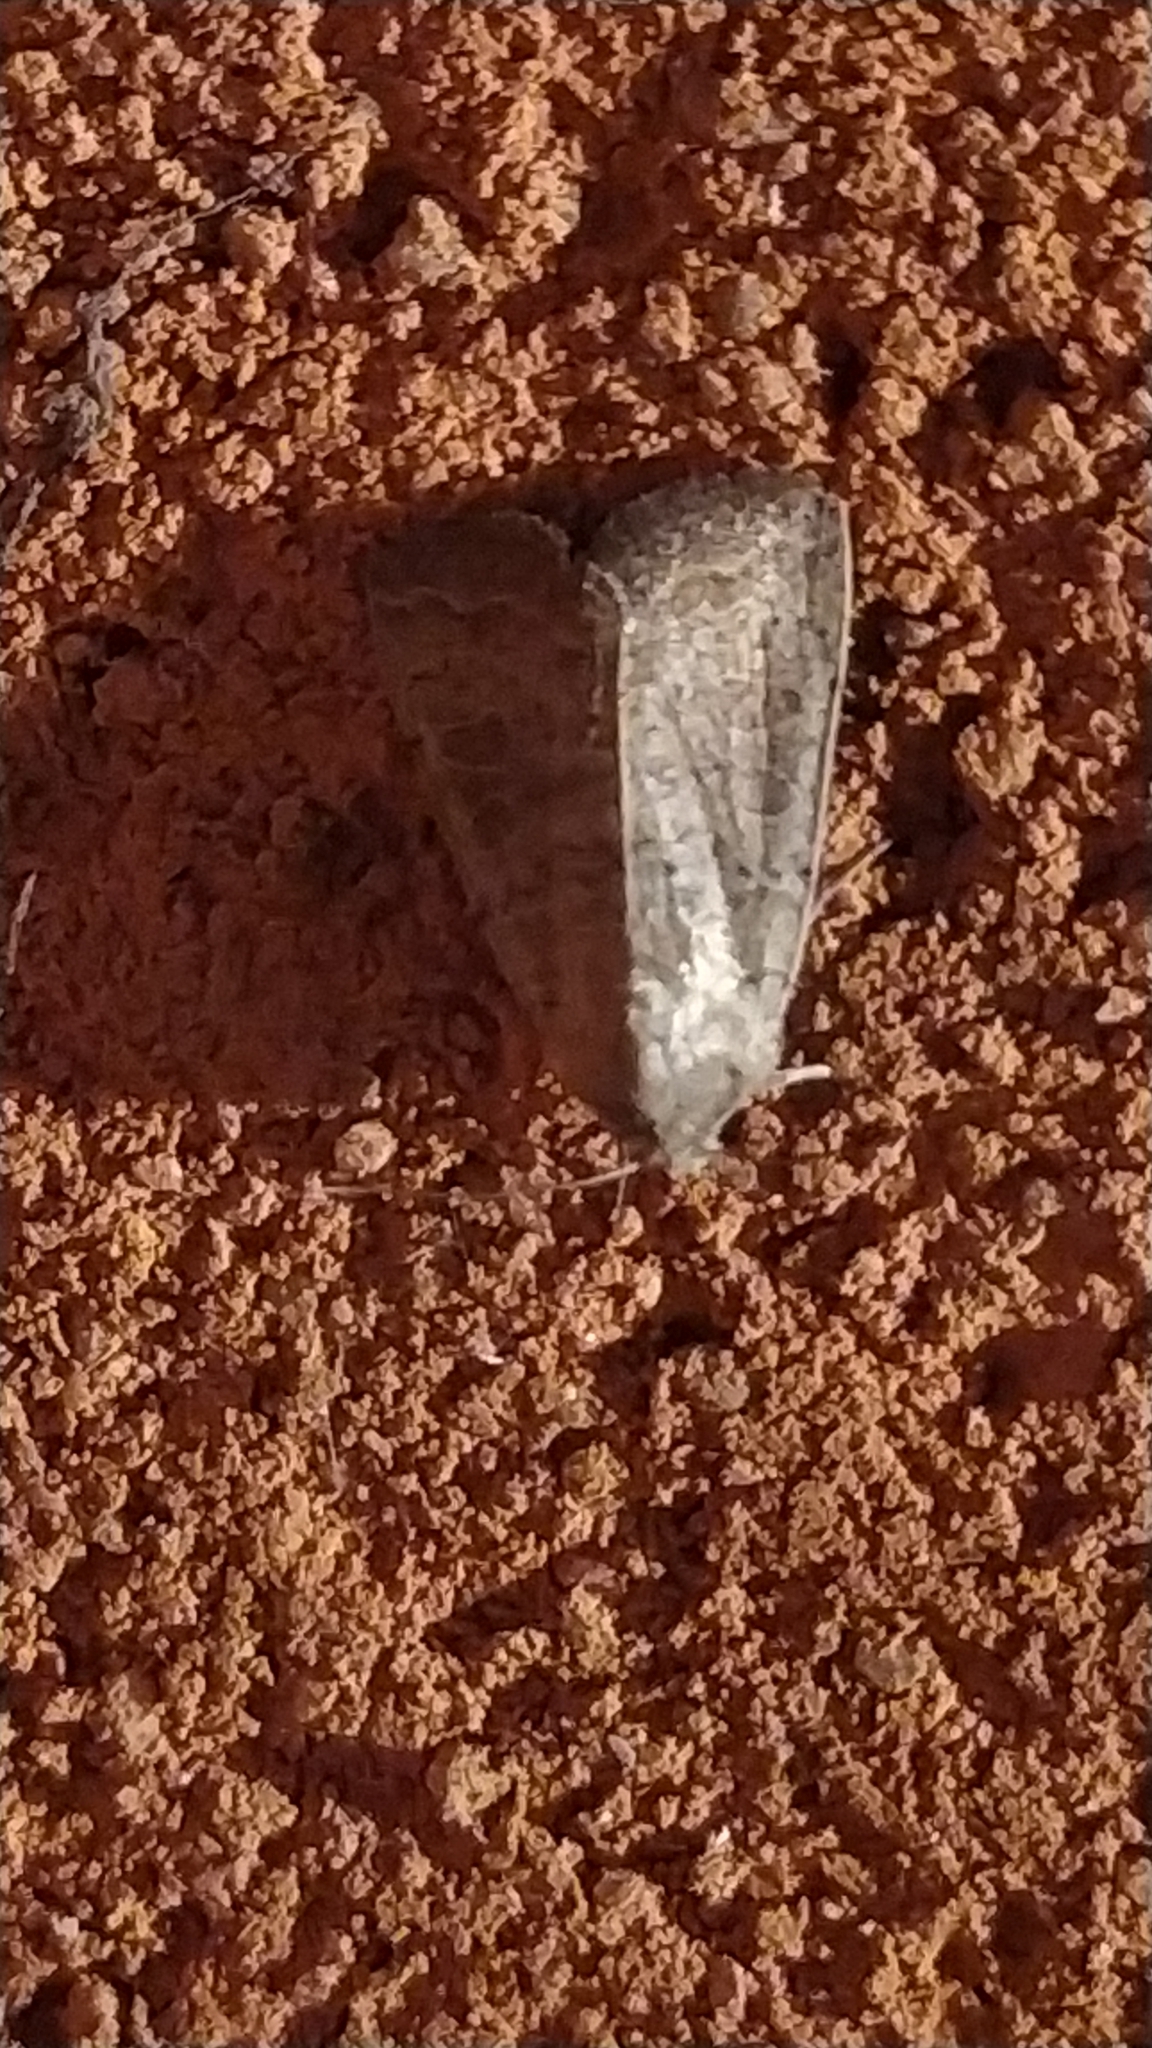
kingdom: Animalia
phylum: Arthropoda
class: Insecta
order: Lepidoptera
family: Noctuidae
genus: Hoplodrina
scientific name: Hoplodrina ambigua
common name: Vine's rustic
